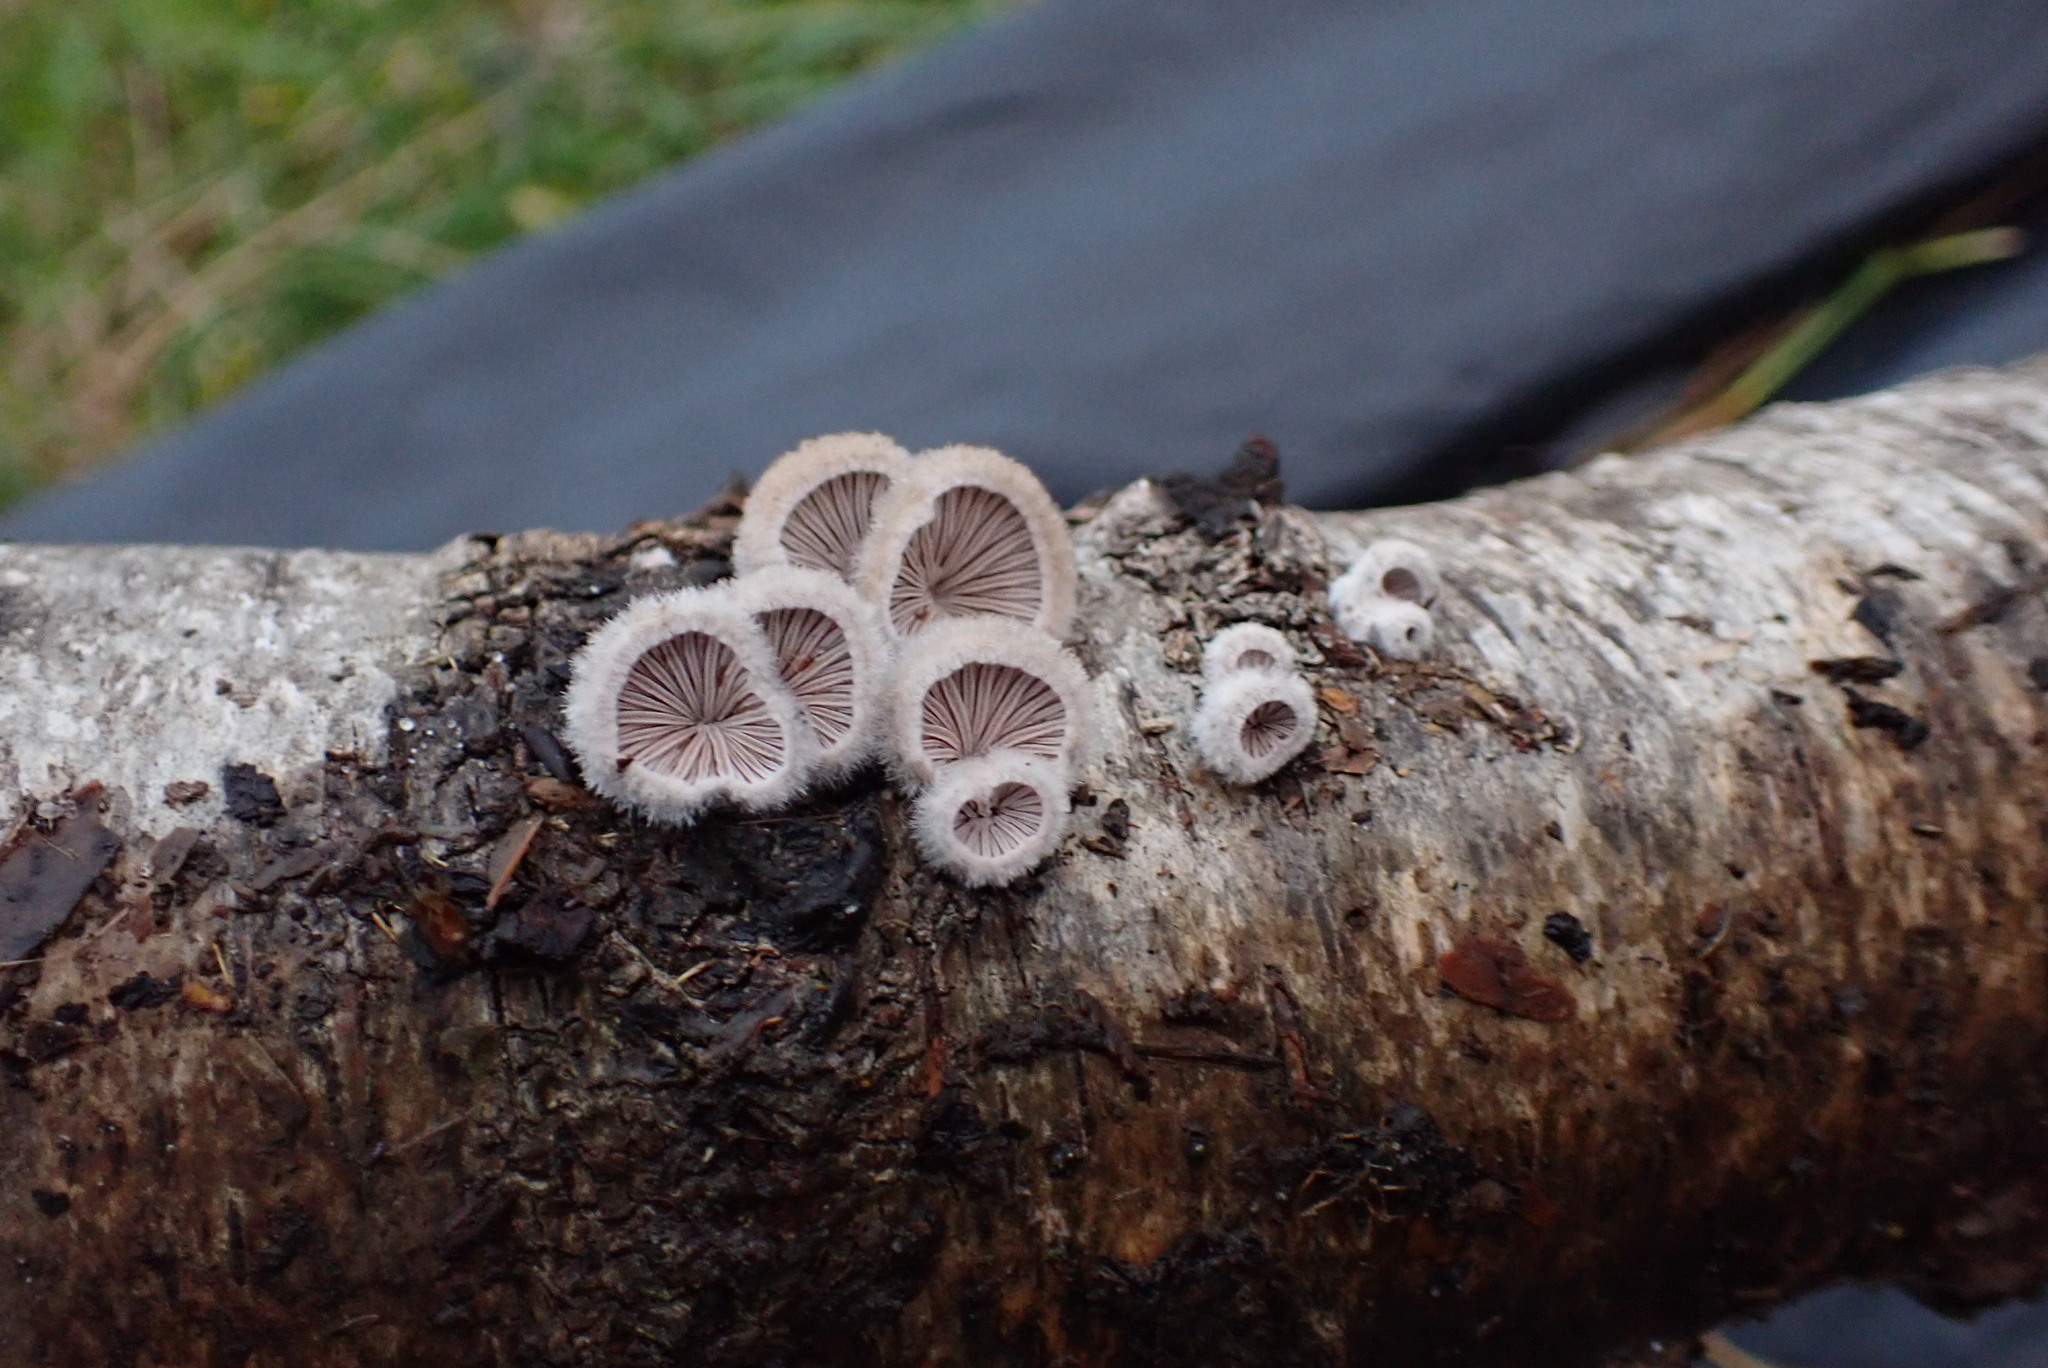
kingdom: Fungi
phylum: Basidiomycota
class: Agaricomycetes
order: Agaricales
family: Schizophyllaceae
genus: Schizophyllum
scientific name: Schizophyllum commune
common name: Common porecrust
